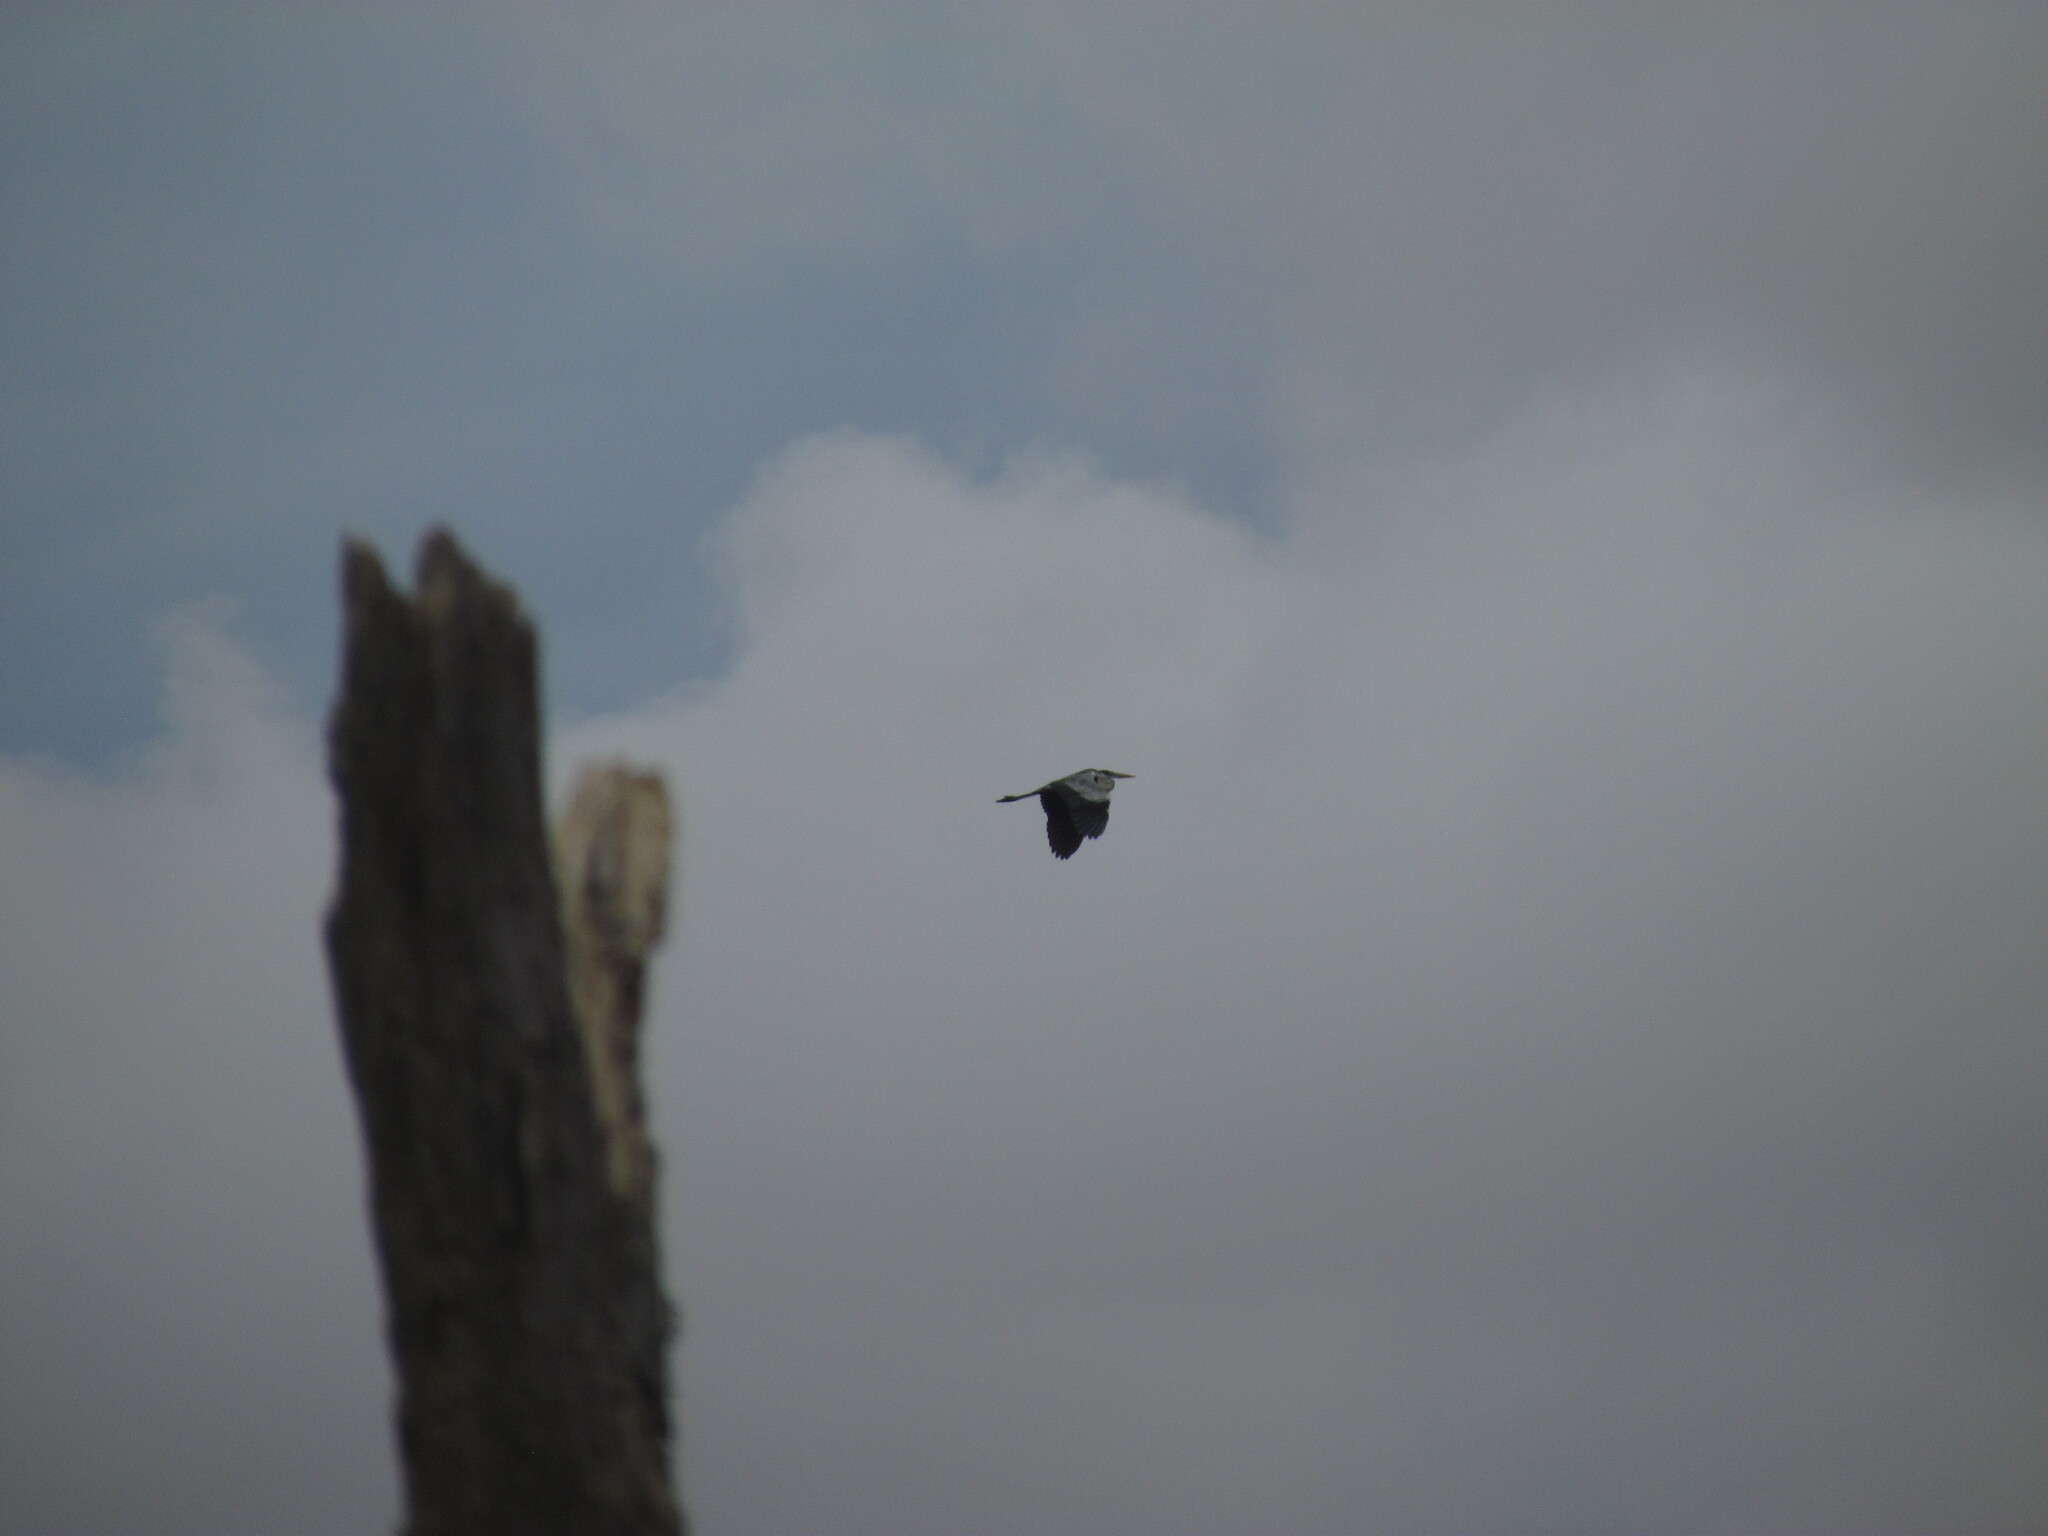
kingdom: Animalia
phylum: Chordata
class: Aves
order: Pelecaniformes
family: Ardeidae
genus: Ardea
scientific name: Ardea cocoi
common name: Cocoi heron
